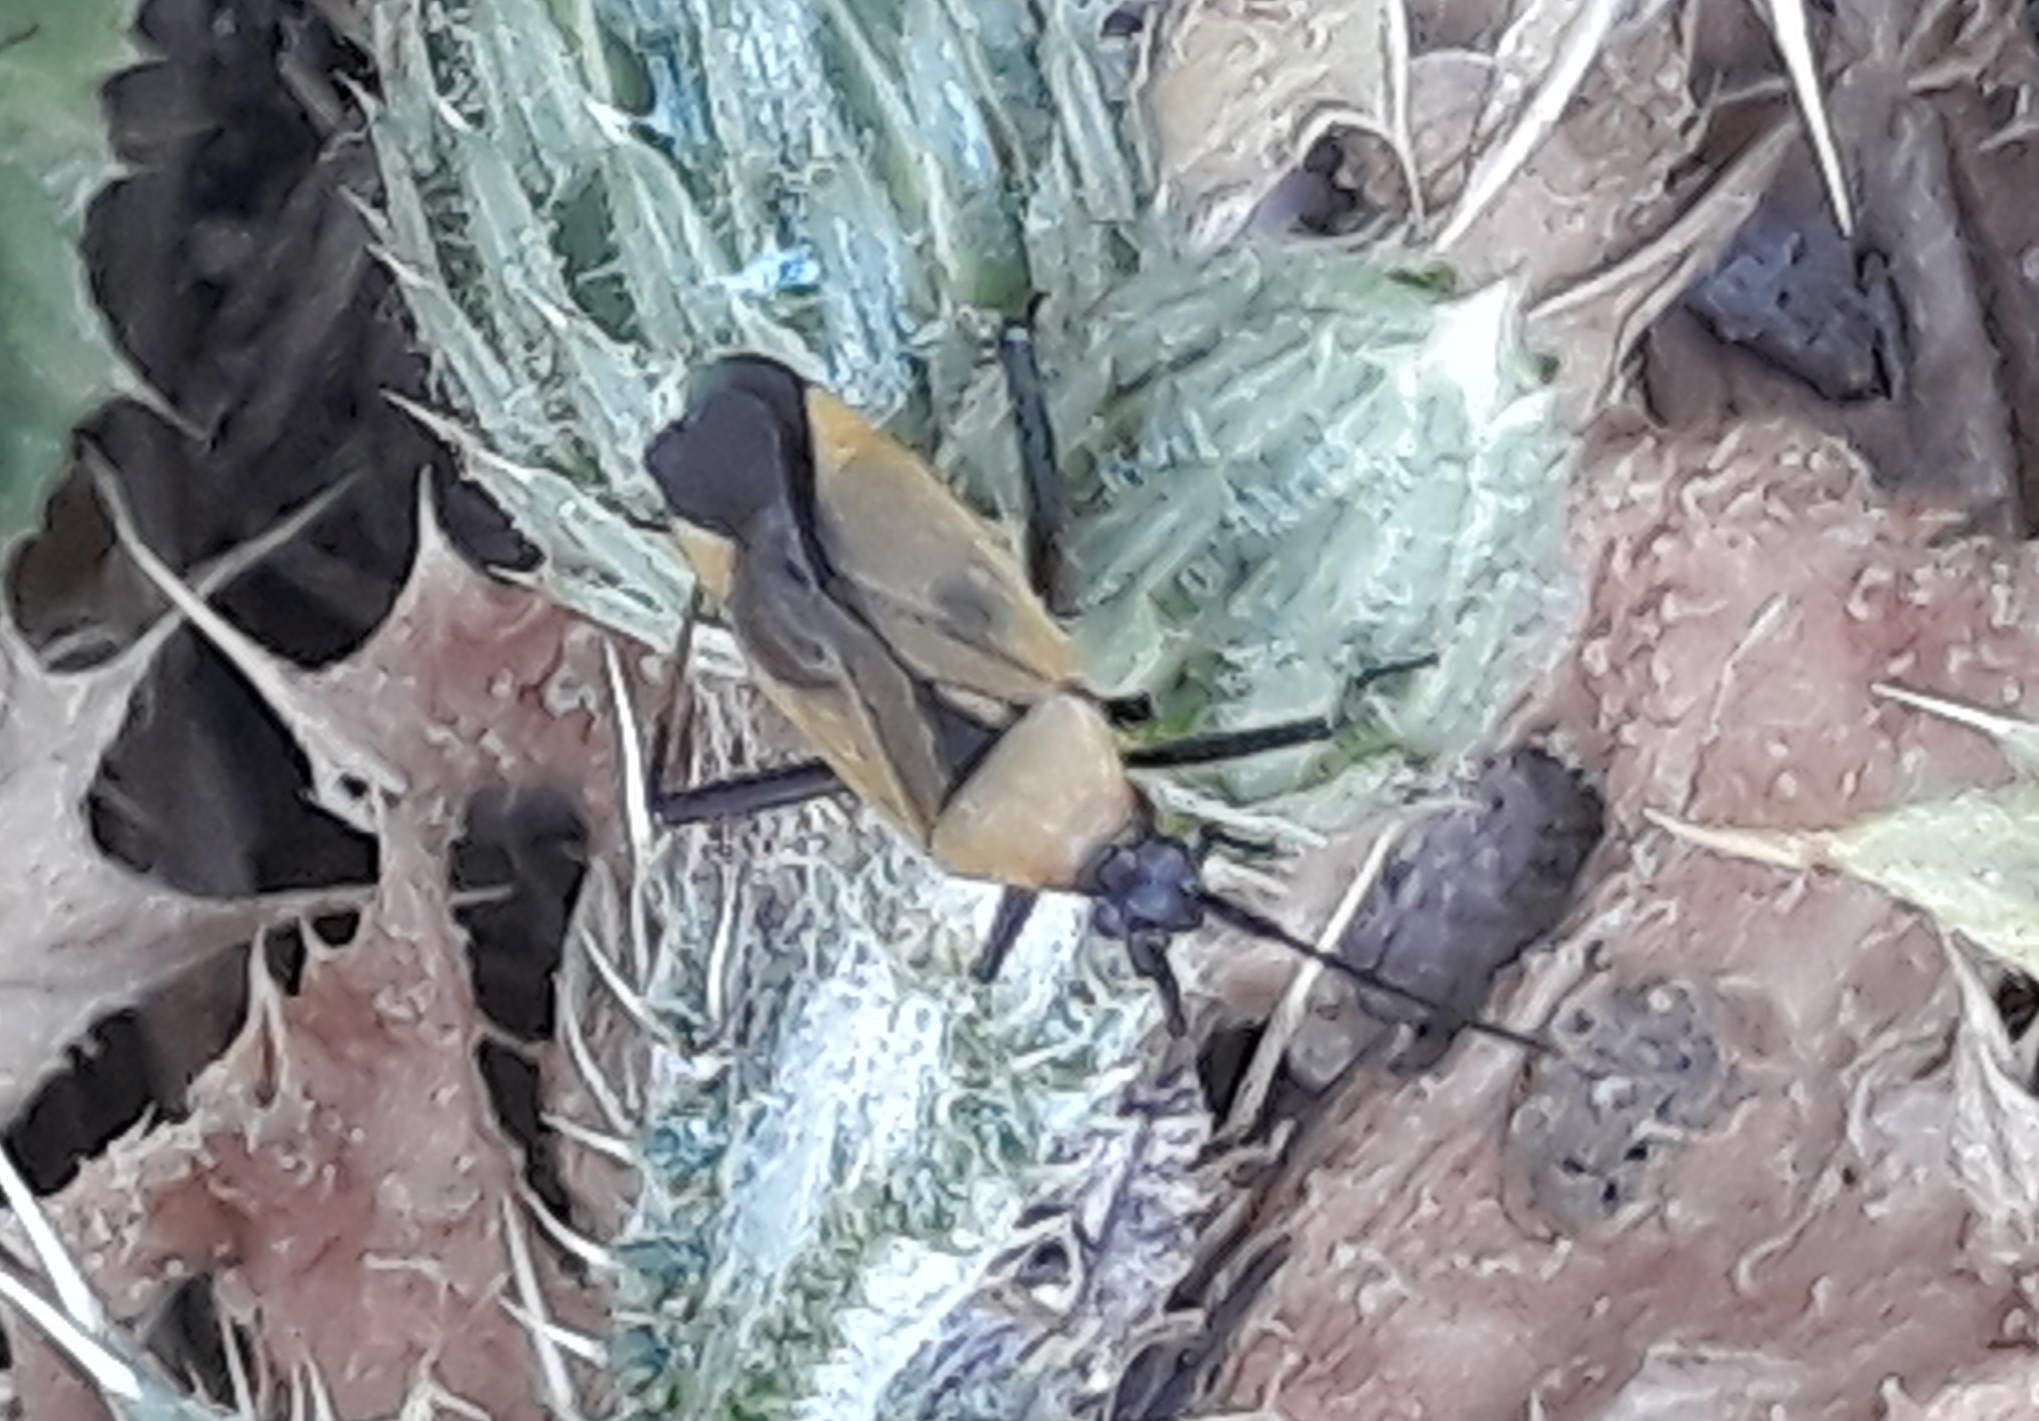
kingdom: Animalia
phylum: Arthropoda
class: Insecta
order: Hemiptera
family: Miridae
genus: Calocoris
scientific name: Calocoris nemoralis
